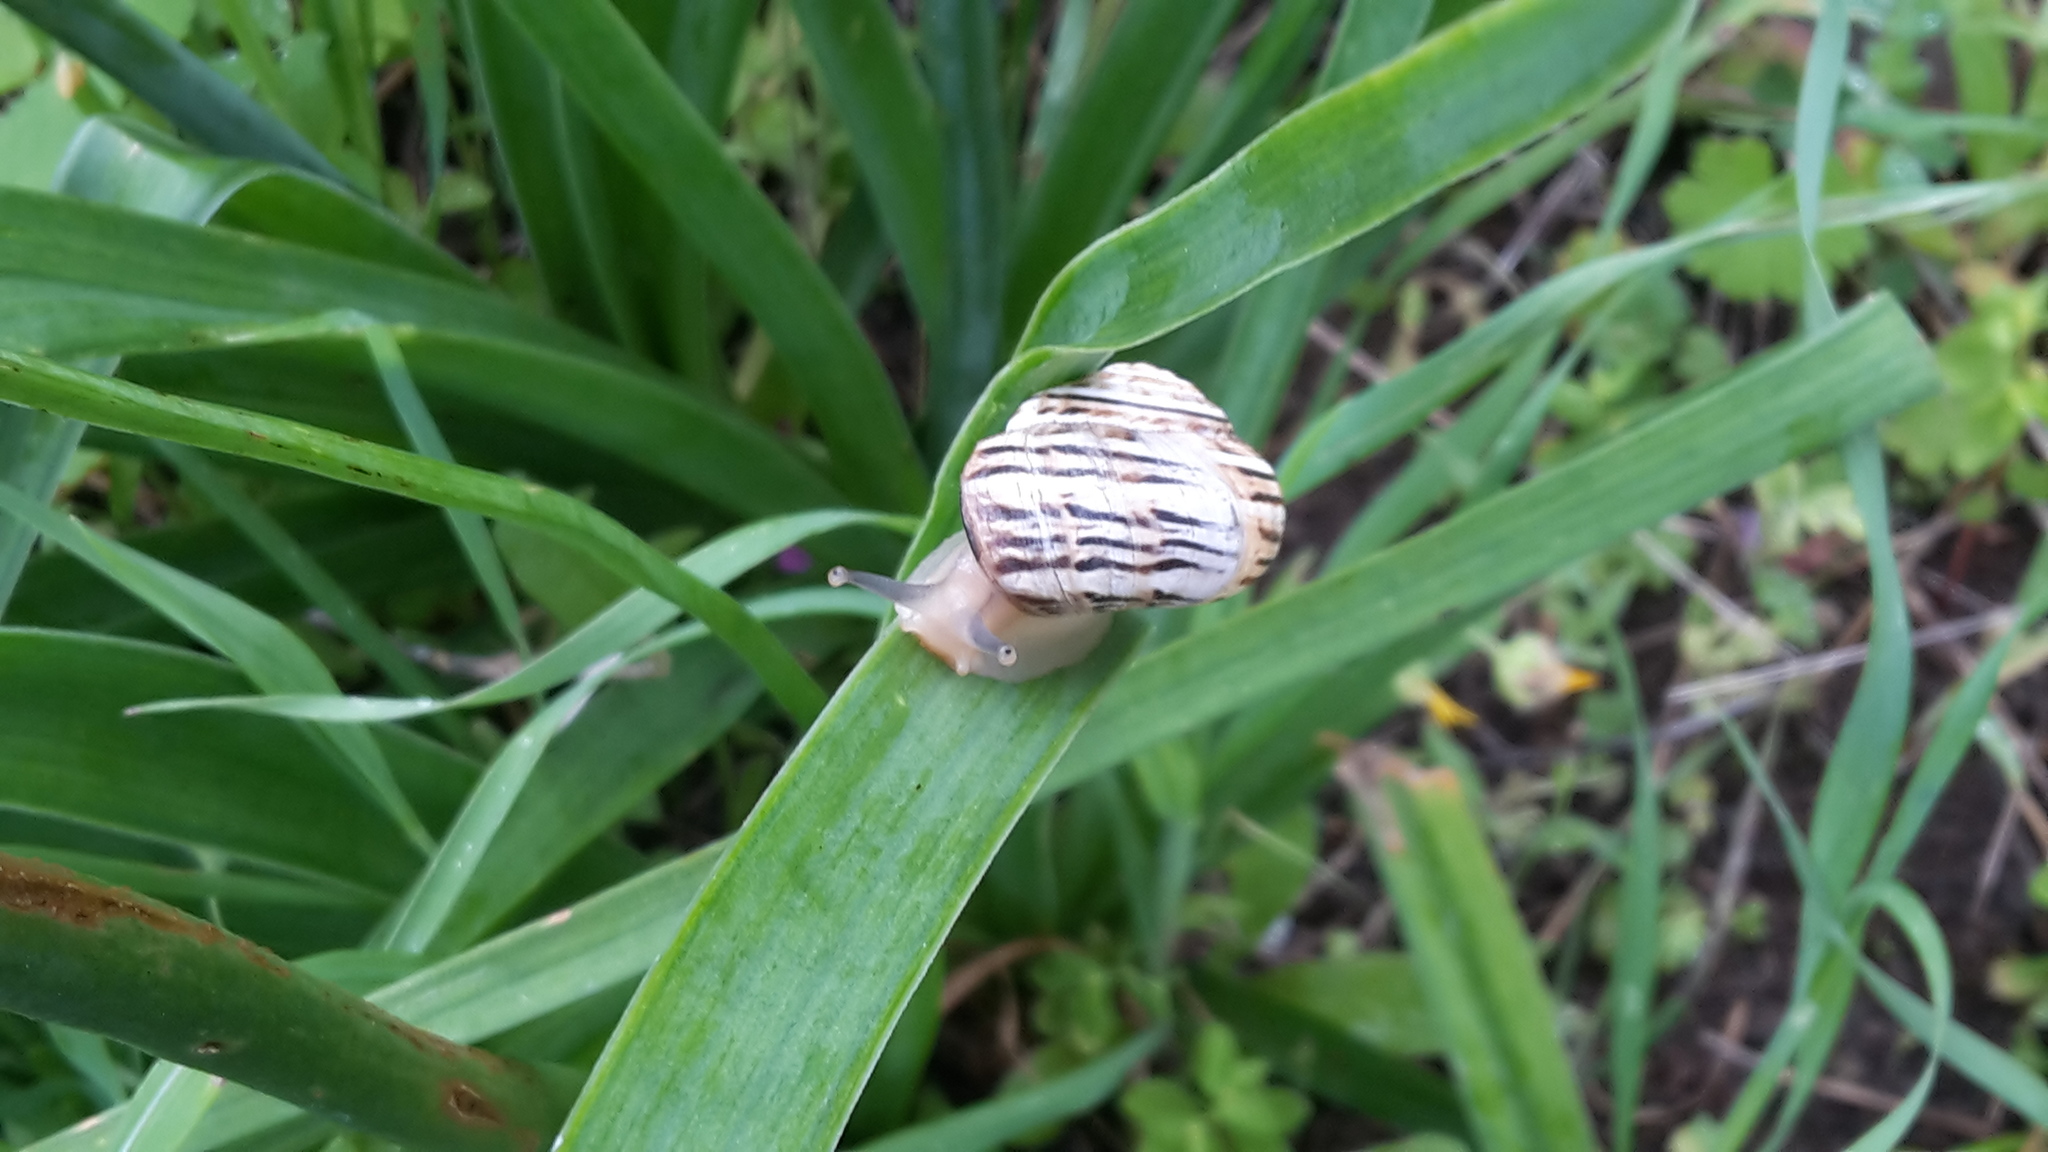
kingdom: Animalia
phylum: Mollusca
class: Gastropoda
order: Stylommatophora
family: Helicidae
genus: Theba
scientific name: Theba pisana
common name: White snail
